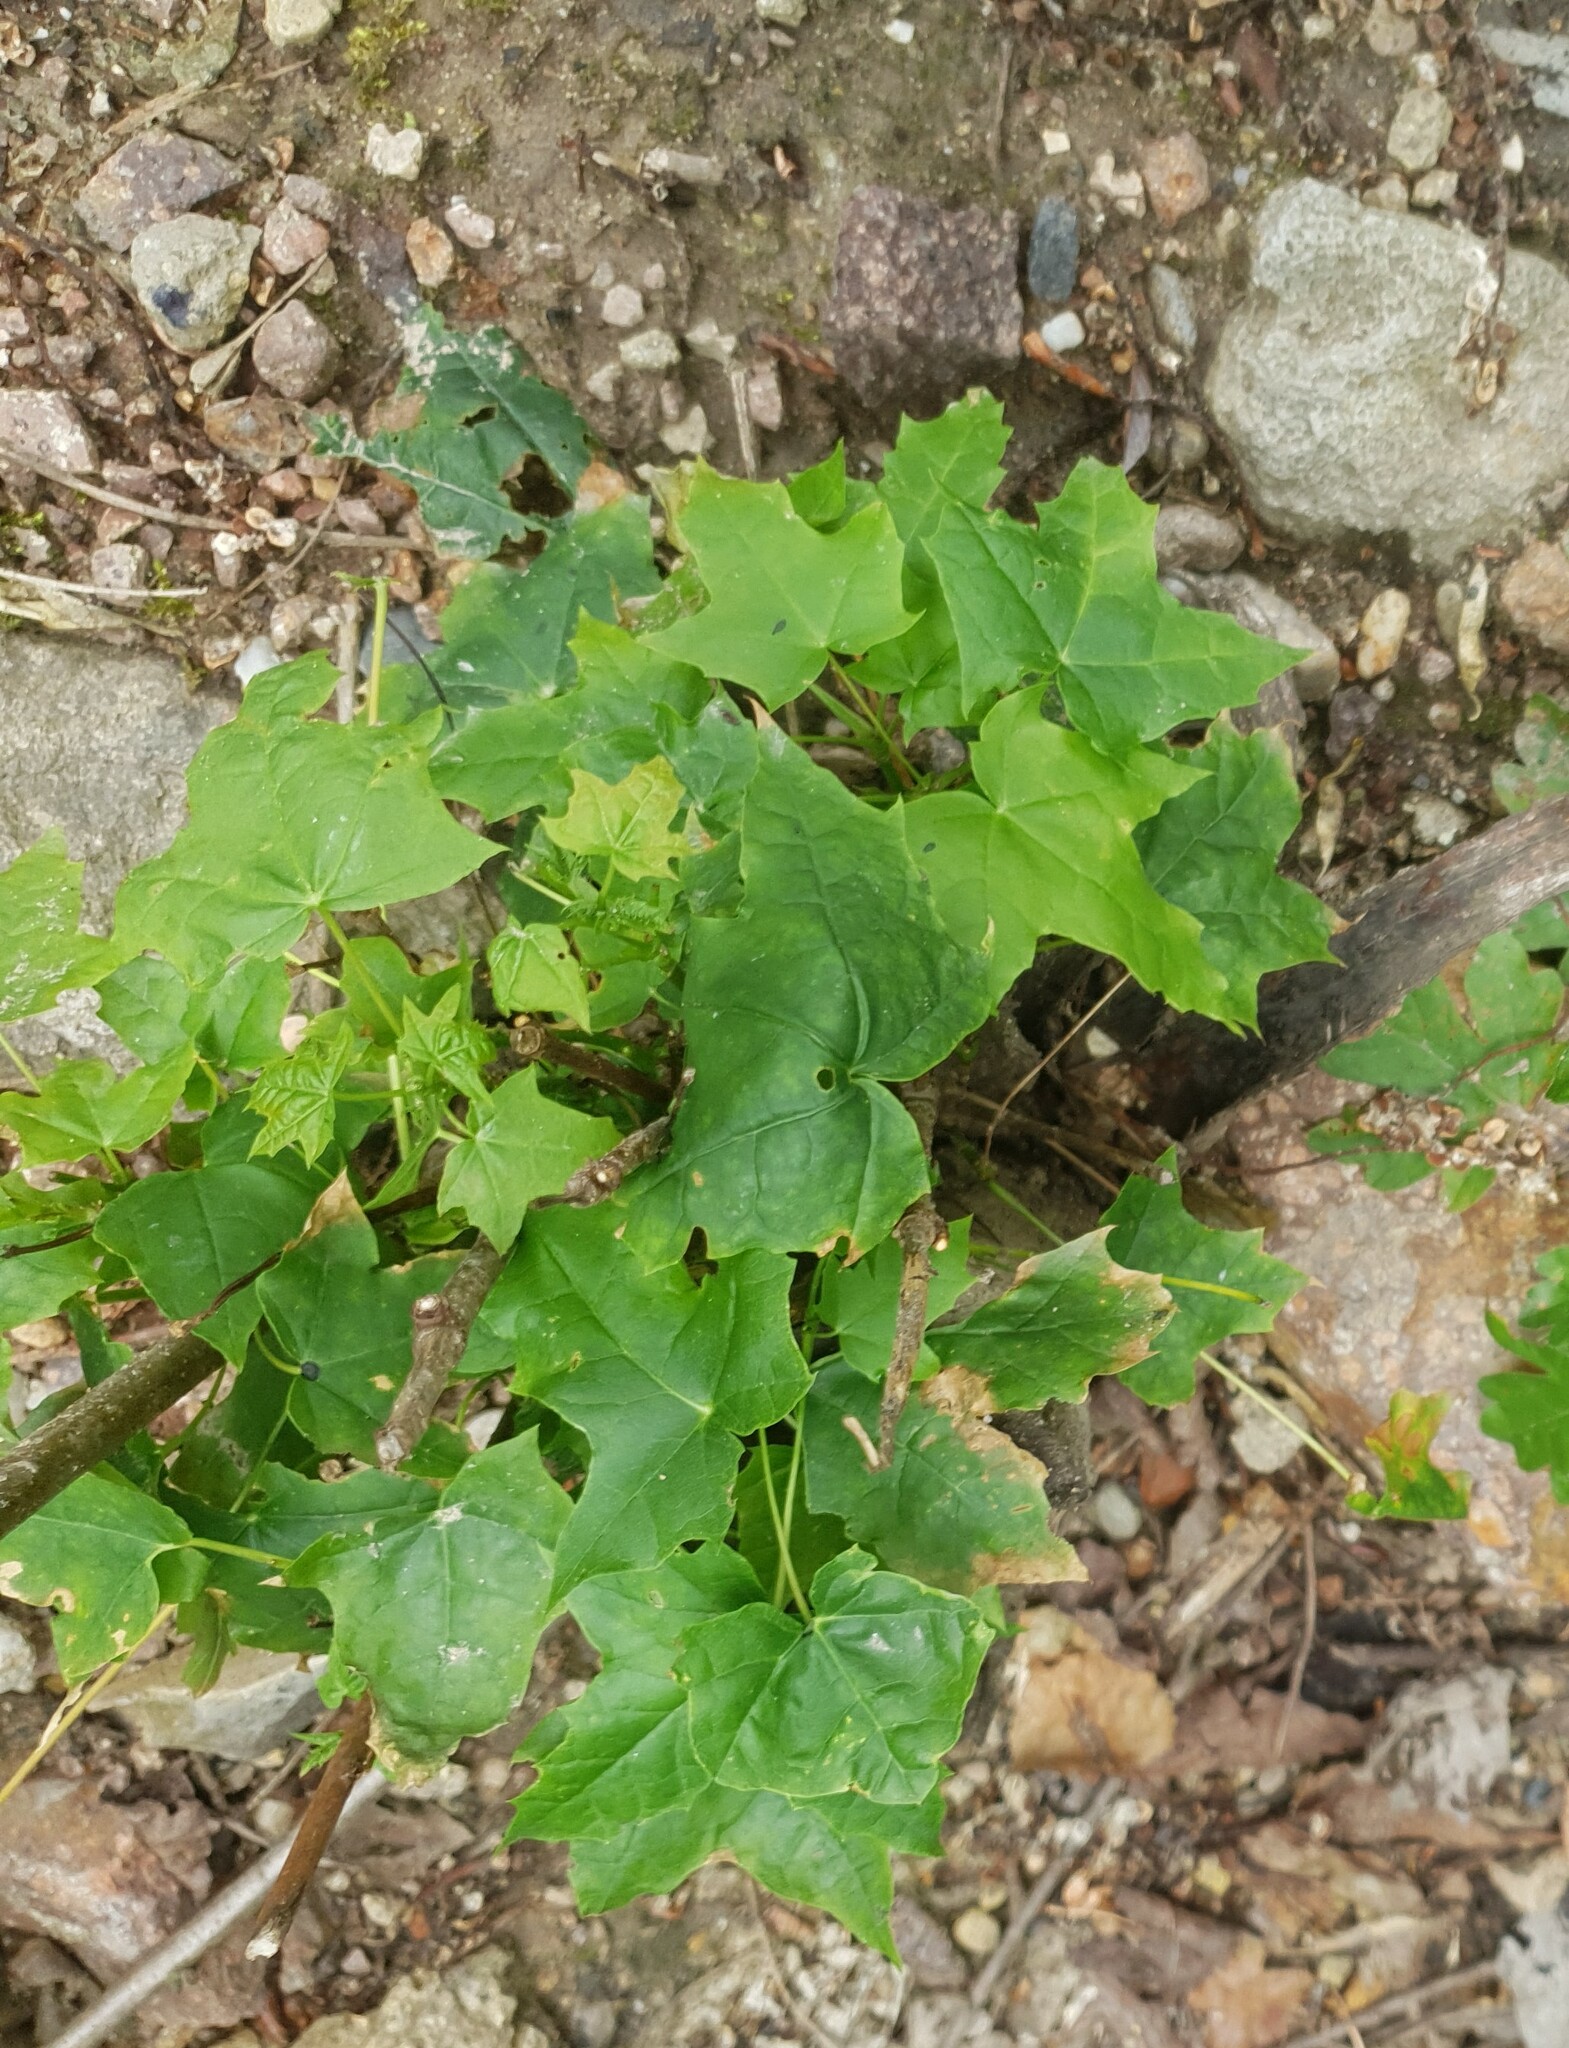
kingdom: Plantae
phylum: Tracheophyta
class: Magnoliopsida
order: Sapindales
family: Sapindaceae
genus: Acer
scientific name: Acer platanoides
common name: Norway maple
